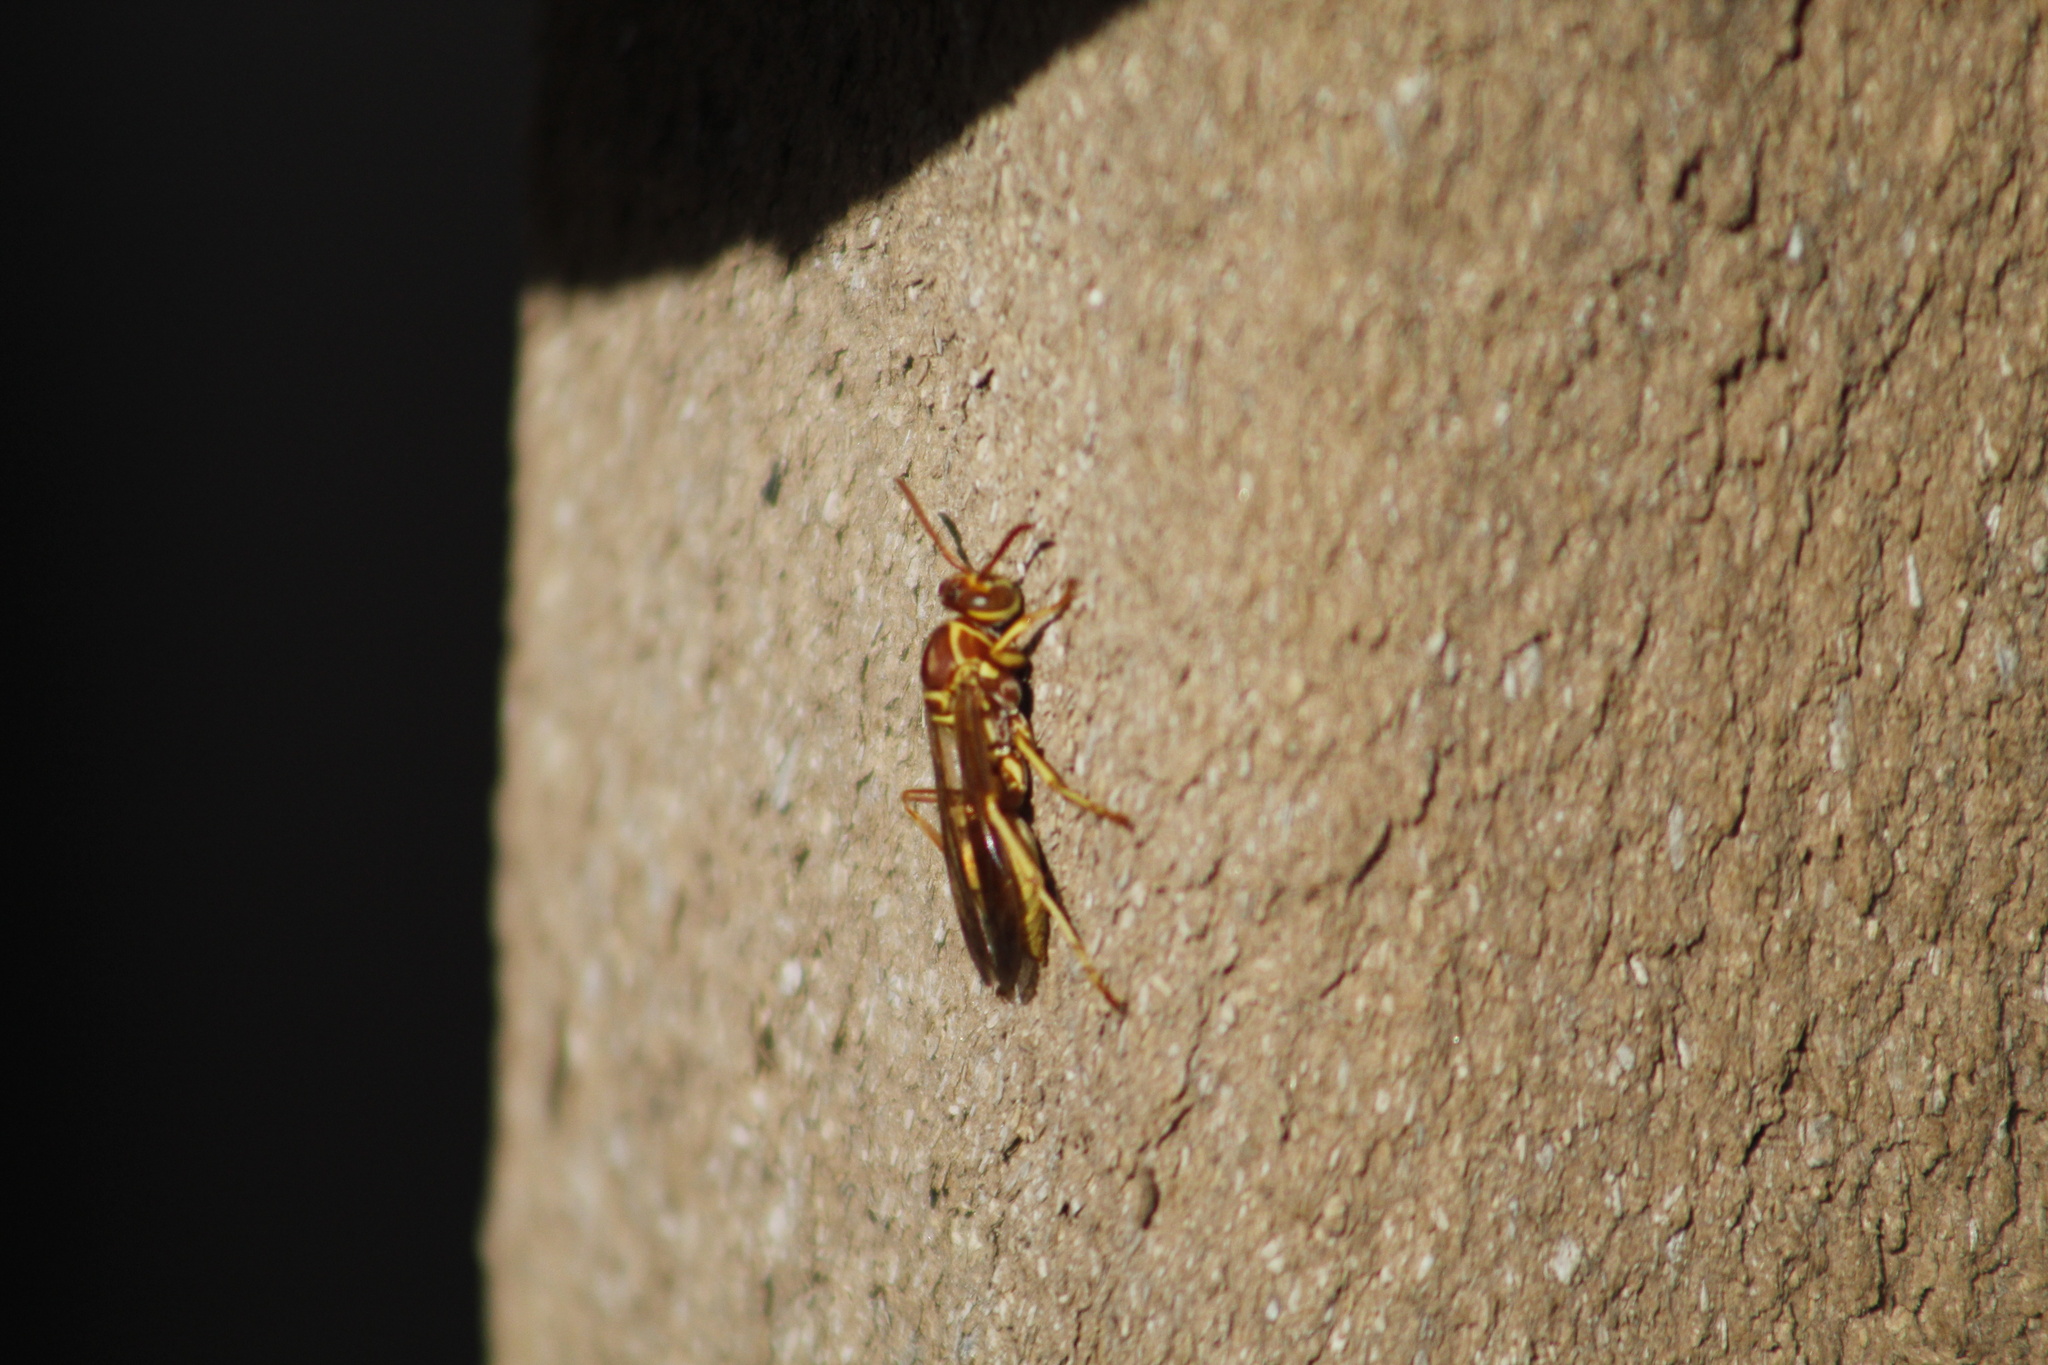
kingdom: Animalia
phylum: Arthropoda
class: Insecta
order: Hymenoptera
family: Eumenidae
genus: Polistes
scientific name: Polistes aurifer
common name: Paper wasp
